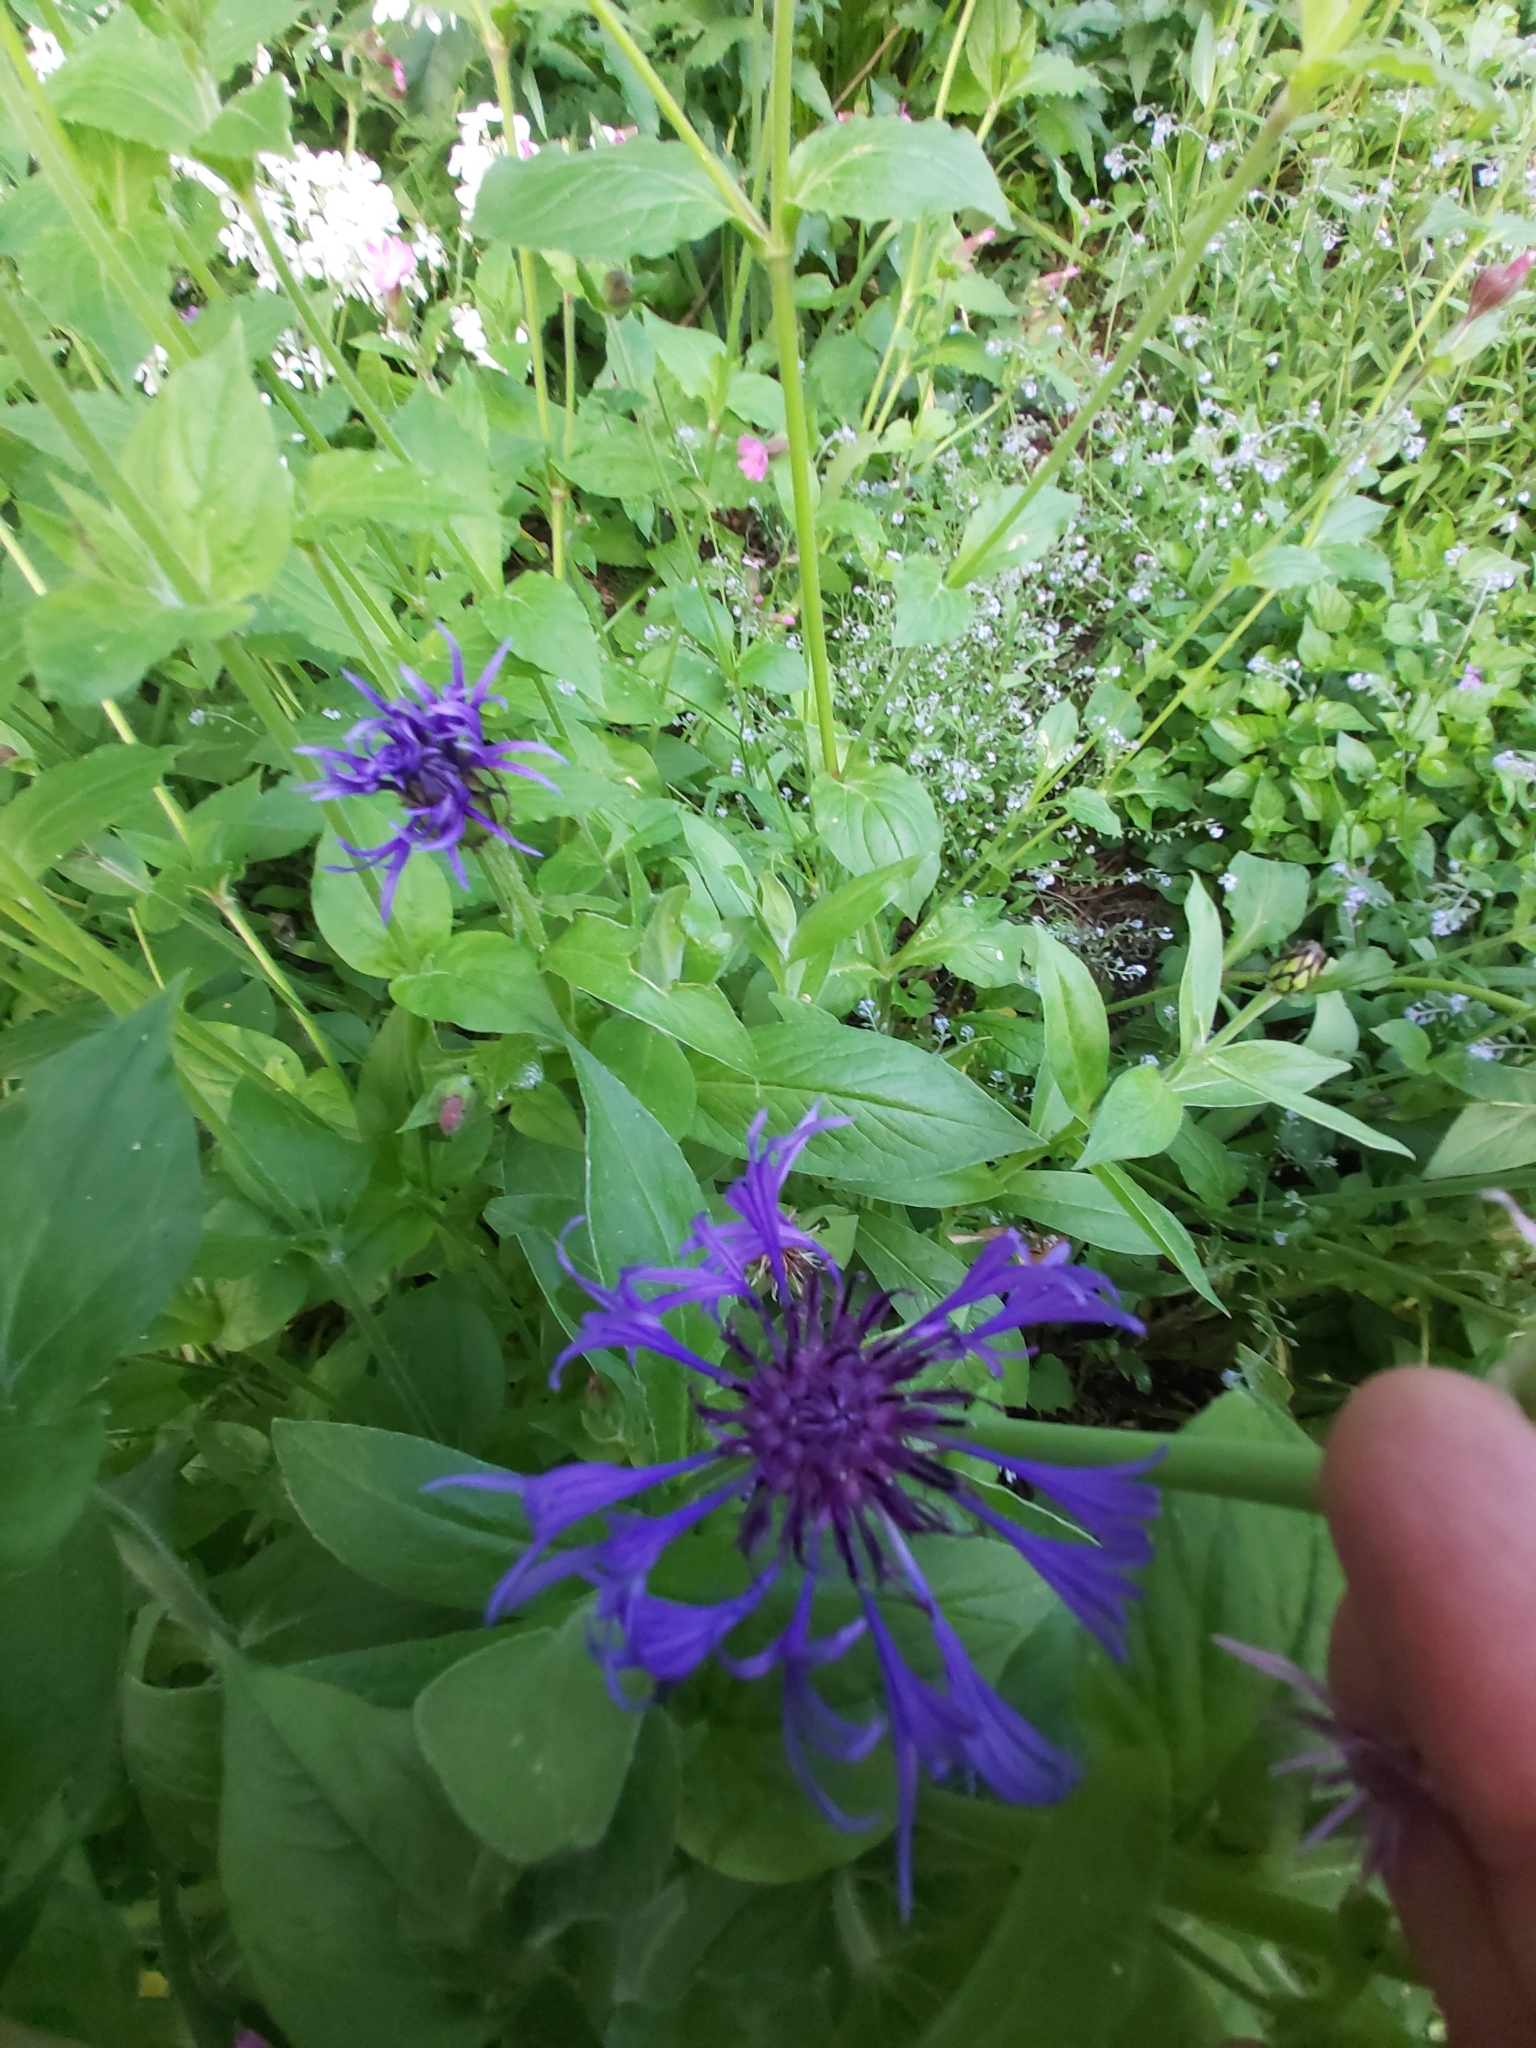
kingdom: Plantae
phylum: Tracheophyta
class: Magnoliopsida
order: Asterales
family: Asteraceae
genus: Centaurea
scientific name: Centaurea montana
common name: Perennial cornflower
